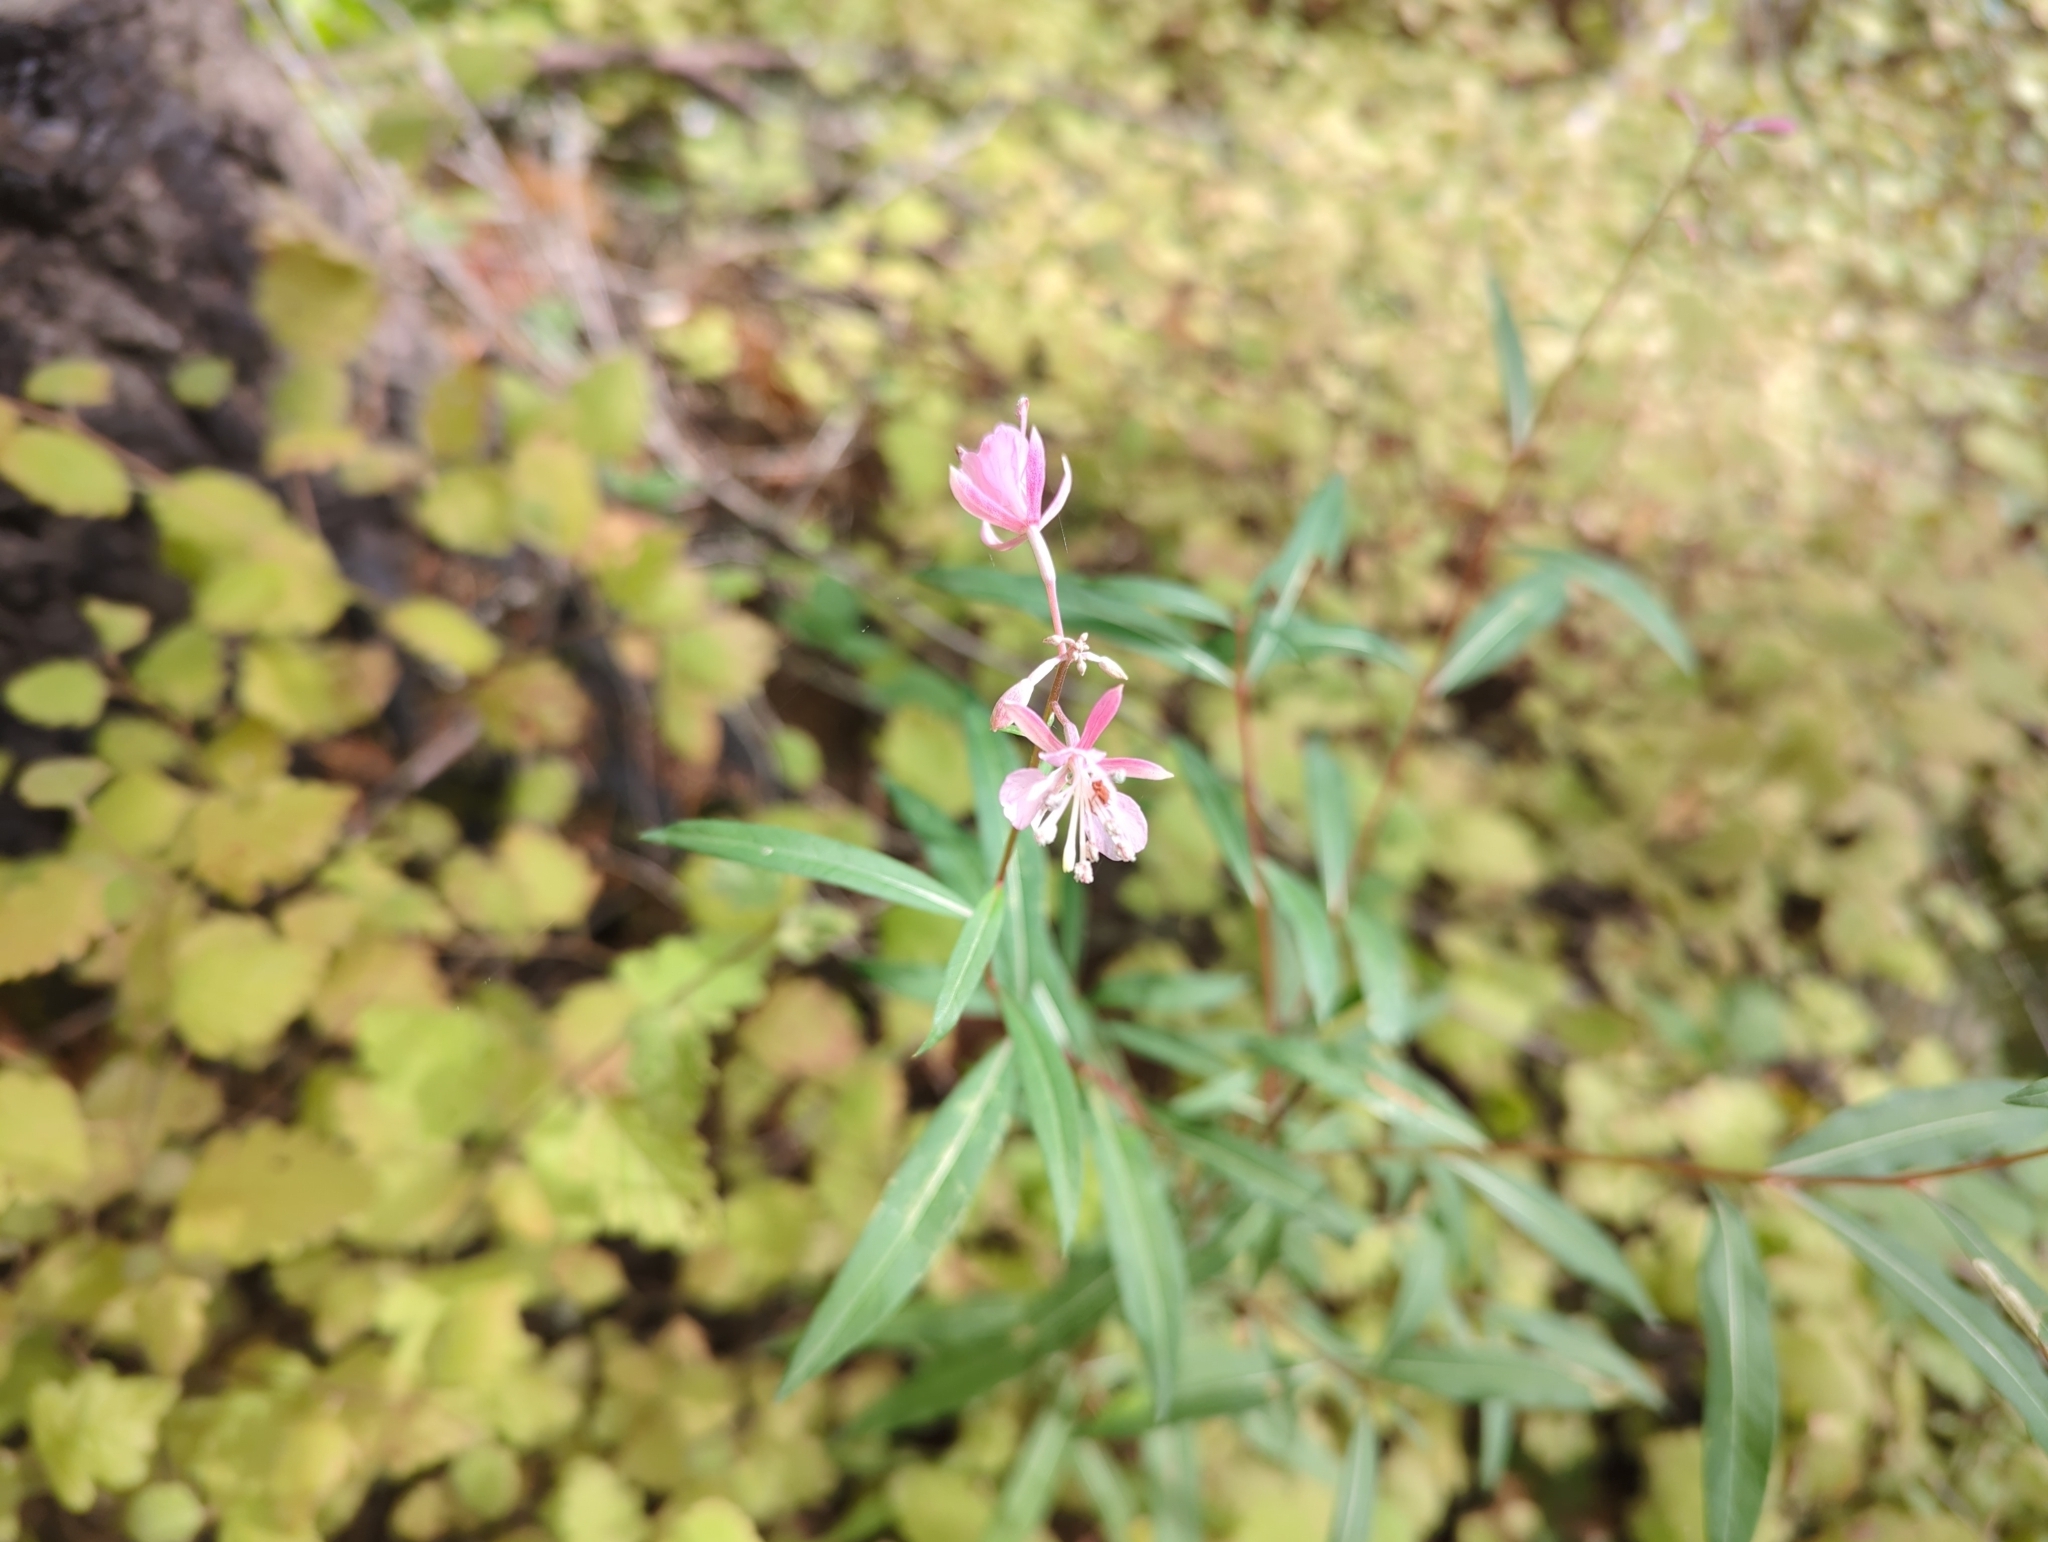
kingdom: Plantae
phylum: Tracheophyta
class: Magnoliopsida
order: Myrtales
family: Onagraceae
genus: Chamaenerion
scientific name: Chamaenerion angustifolium
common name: Fireweed
